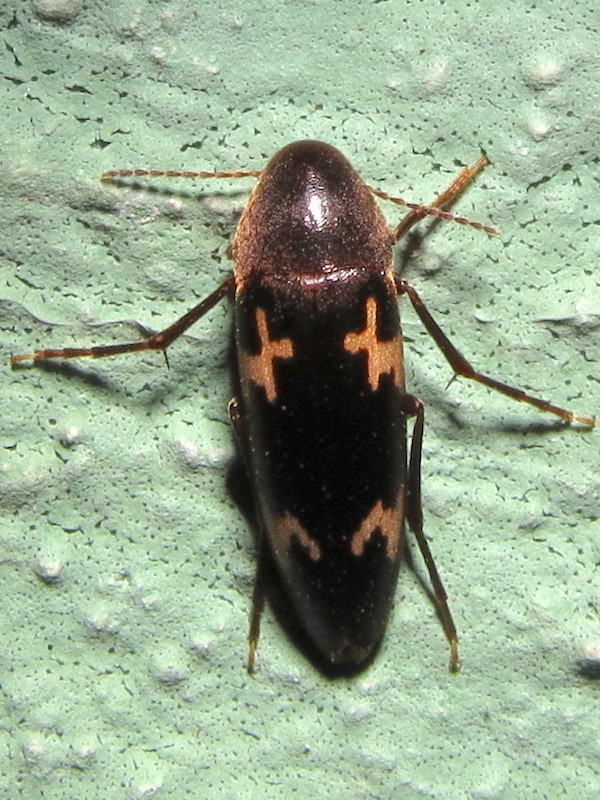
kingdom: Animalia
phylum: Arthropoda
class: Insecta
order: Coleoptera
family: Melandryidae
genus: Dircaea
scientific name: Dircaea liturata
